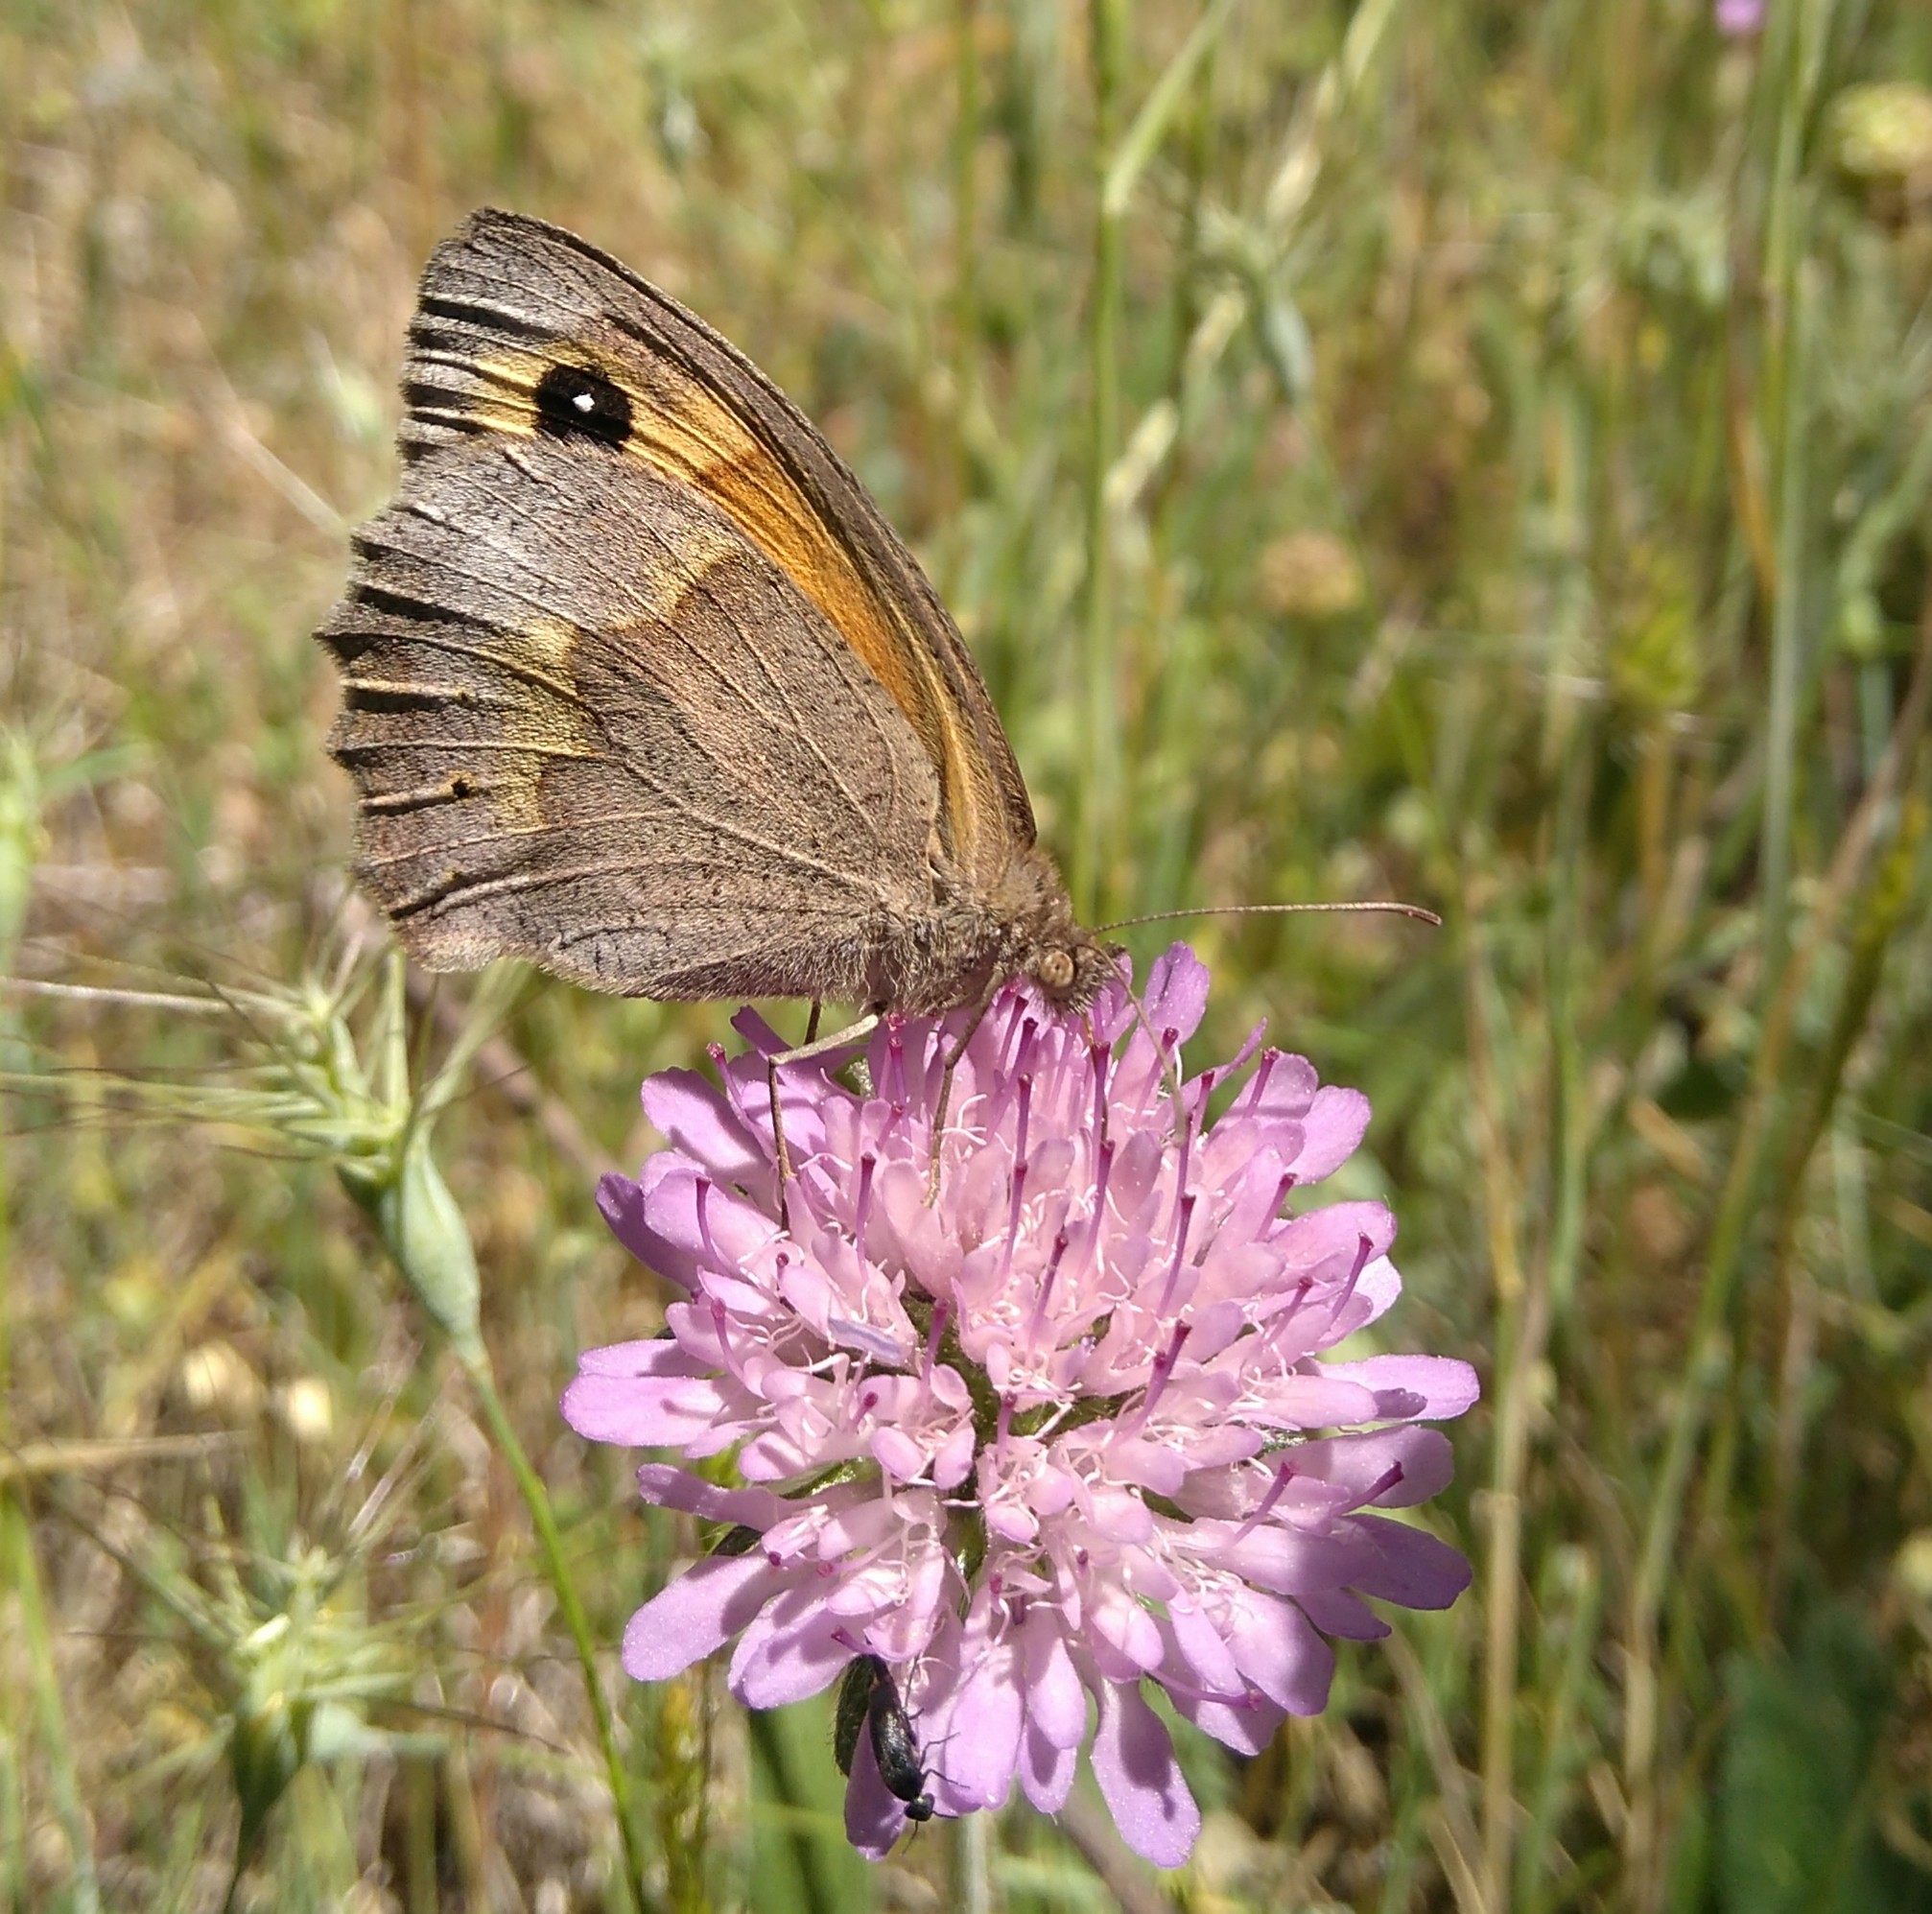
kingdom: Animalia
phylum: Arthropoda
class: Insecta
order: Lepidoptera
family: Nymphalidae
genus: Maniola
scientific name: Maniola jurtina
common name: Meadow brown
